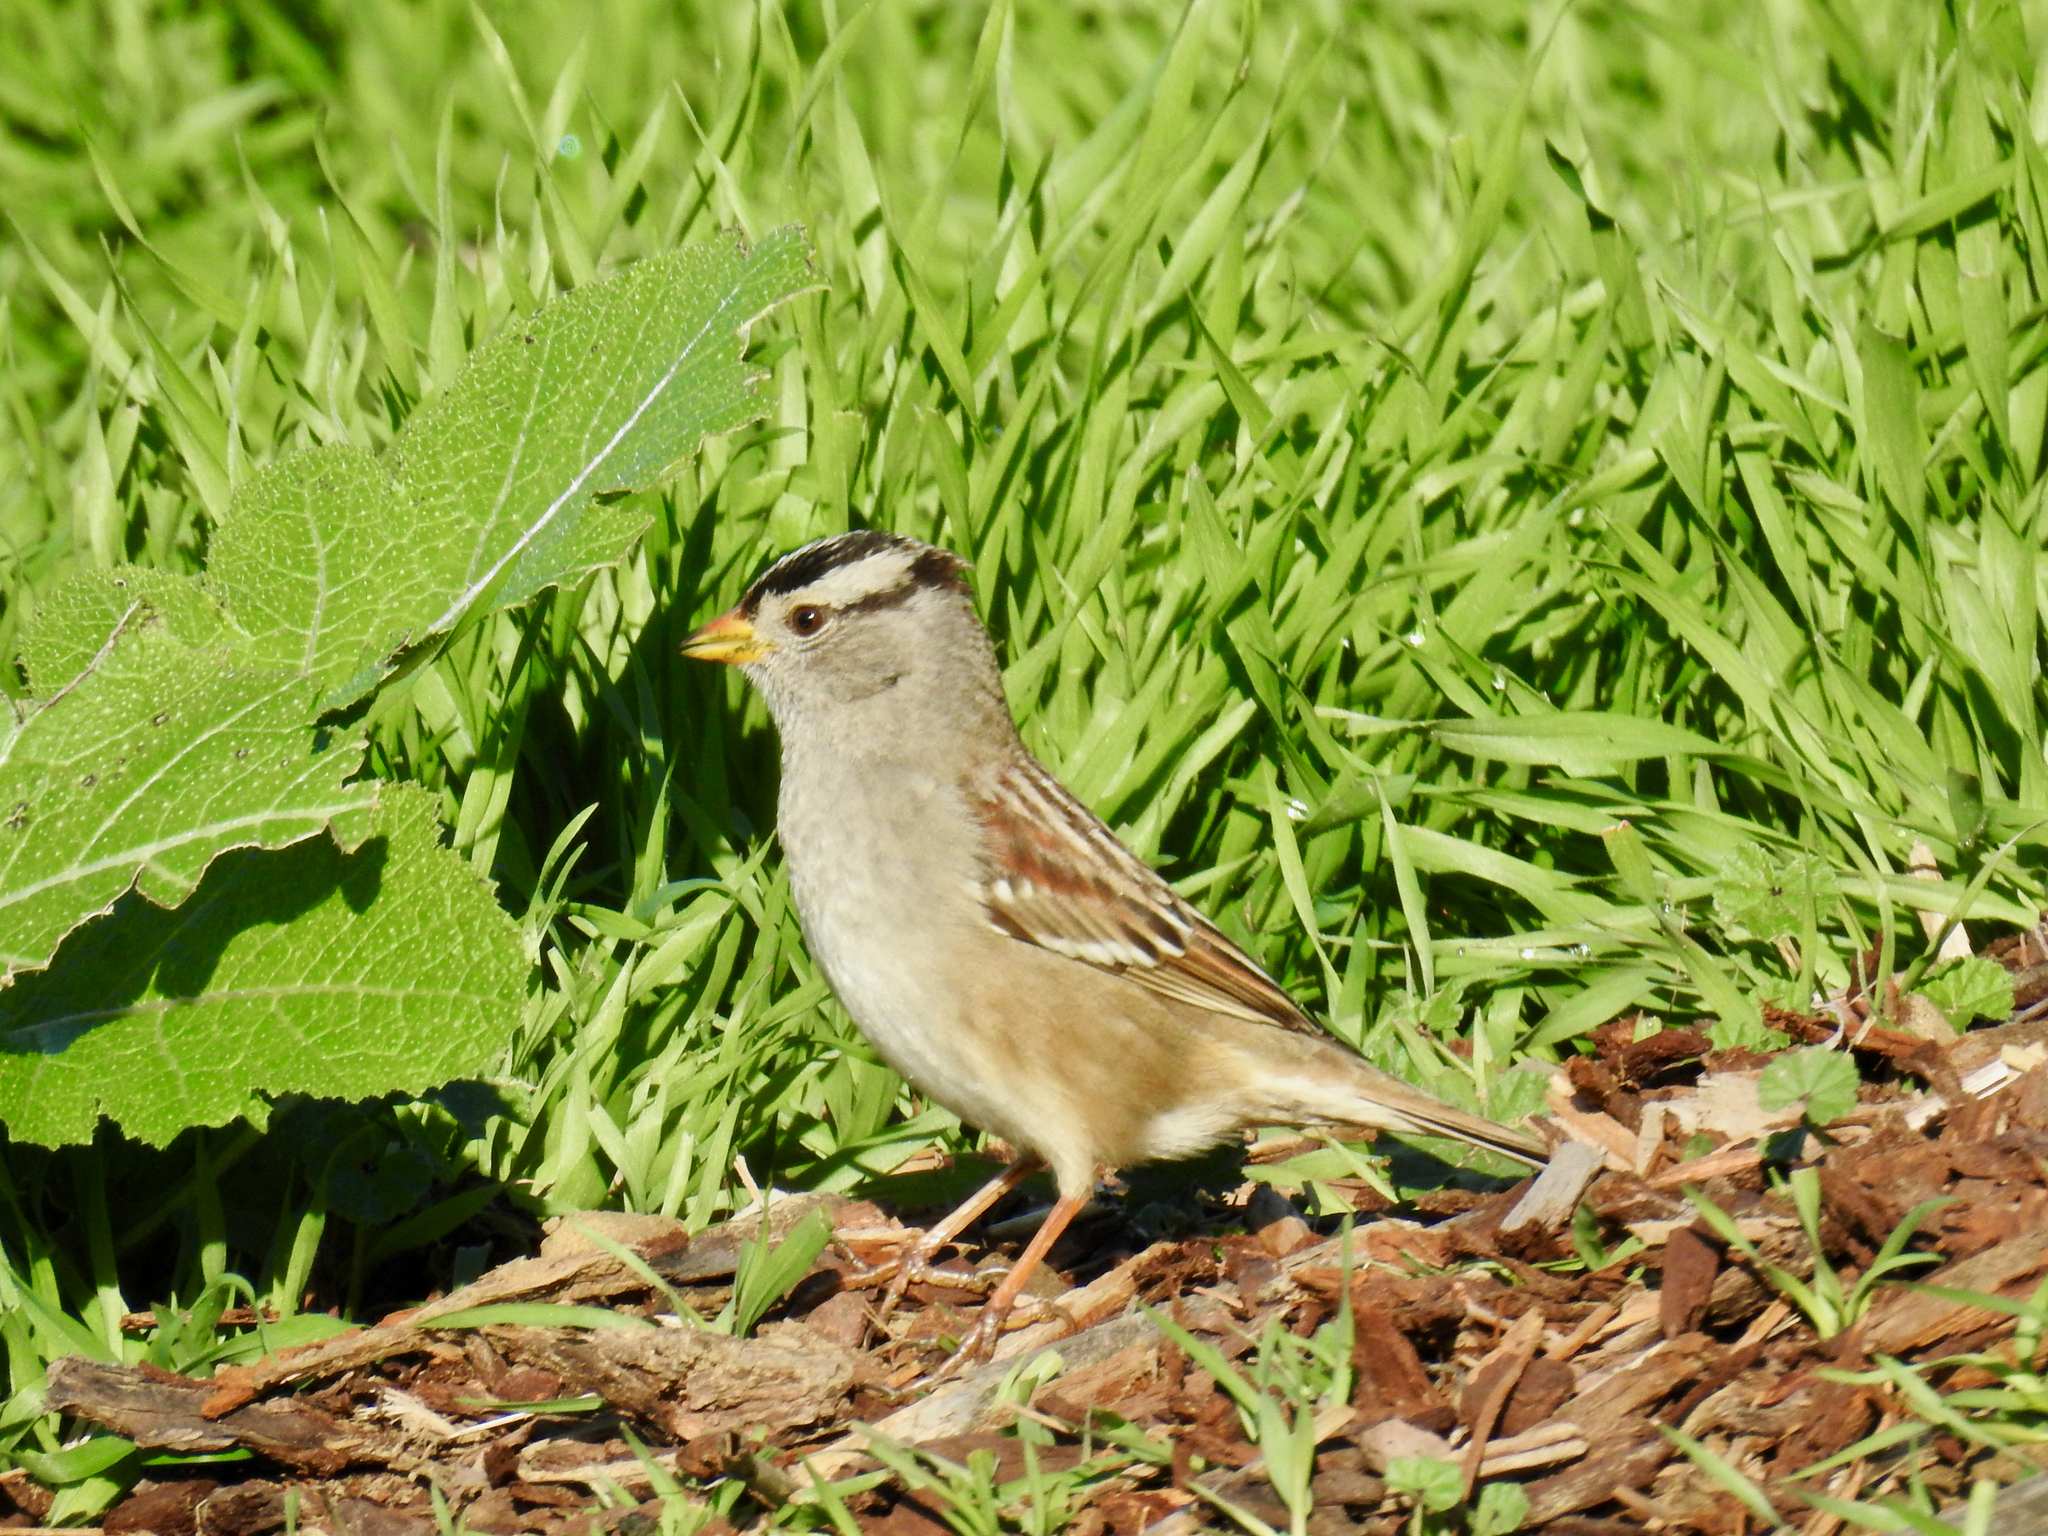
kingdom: Animalia
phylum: Chordata
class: Aves
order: Passeriformes
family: Passerellidae
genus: Zonotrichia
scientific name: Zonotrichia leucophrys
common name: White-crowned sparrow
